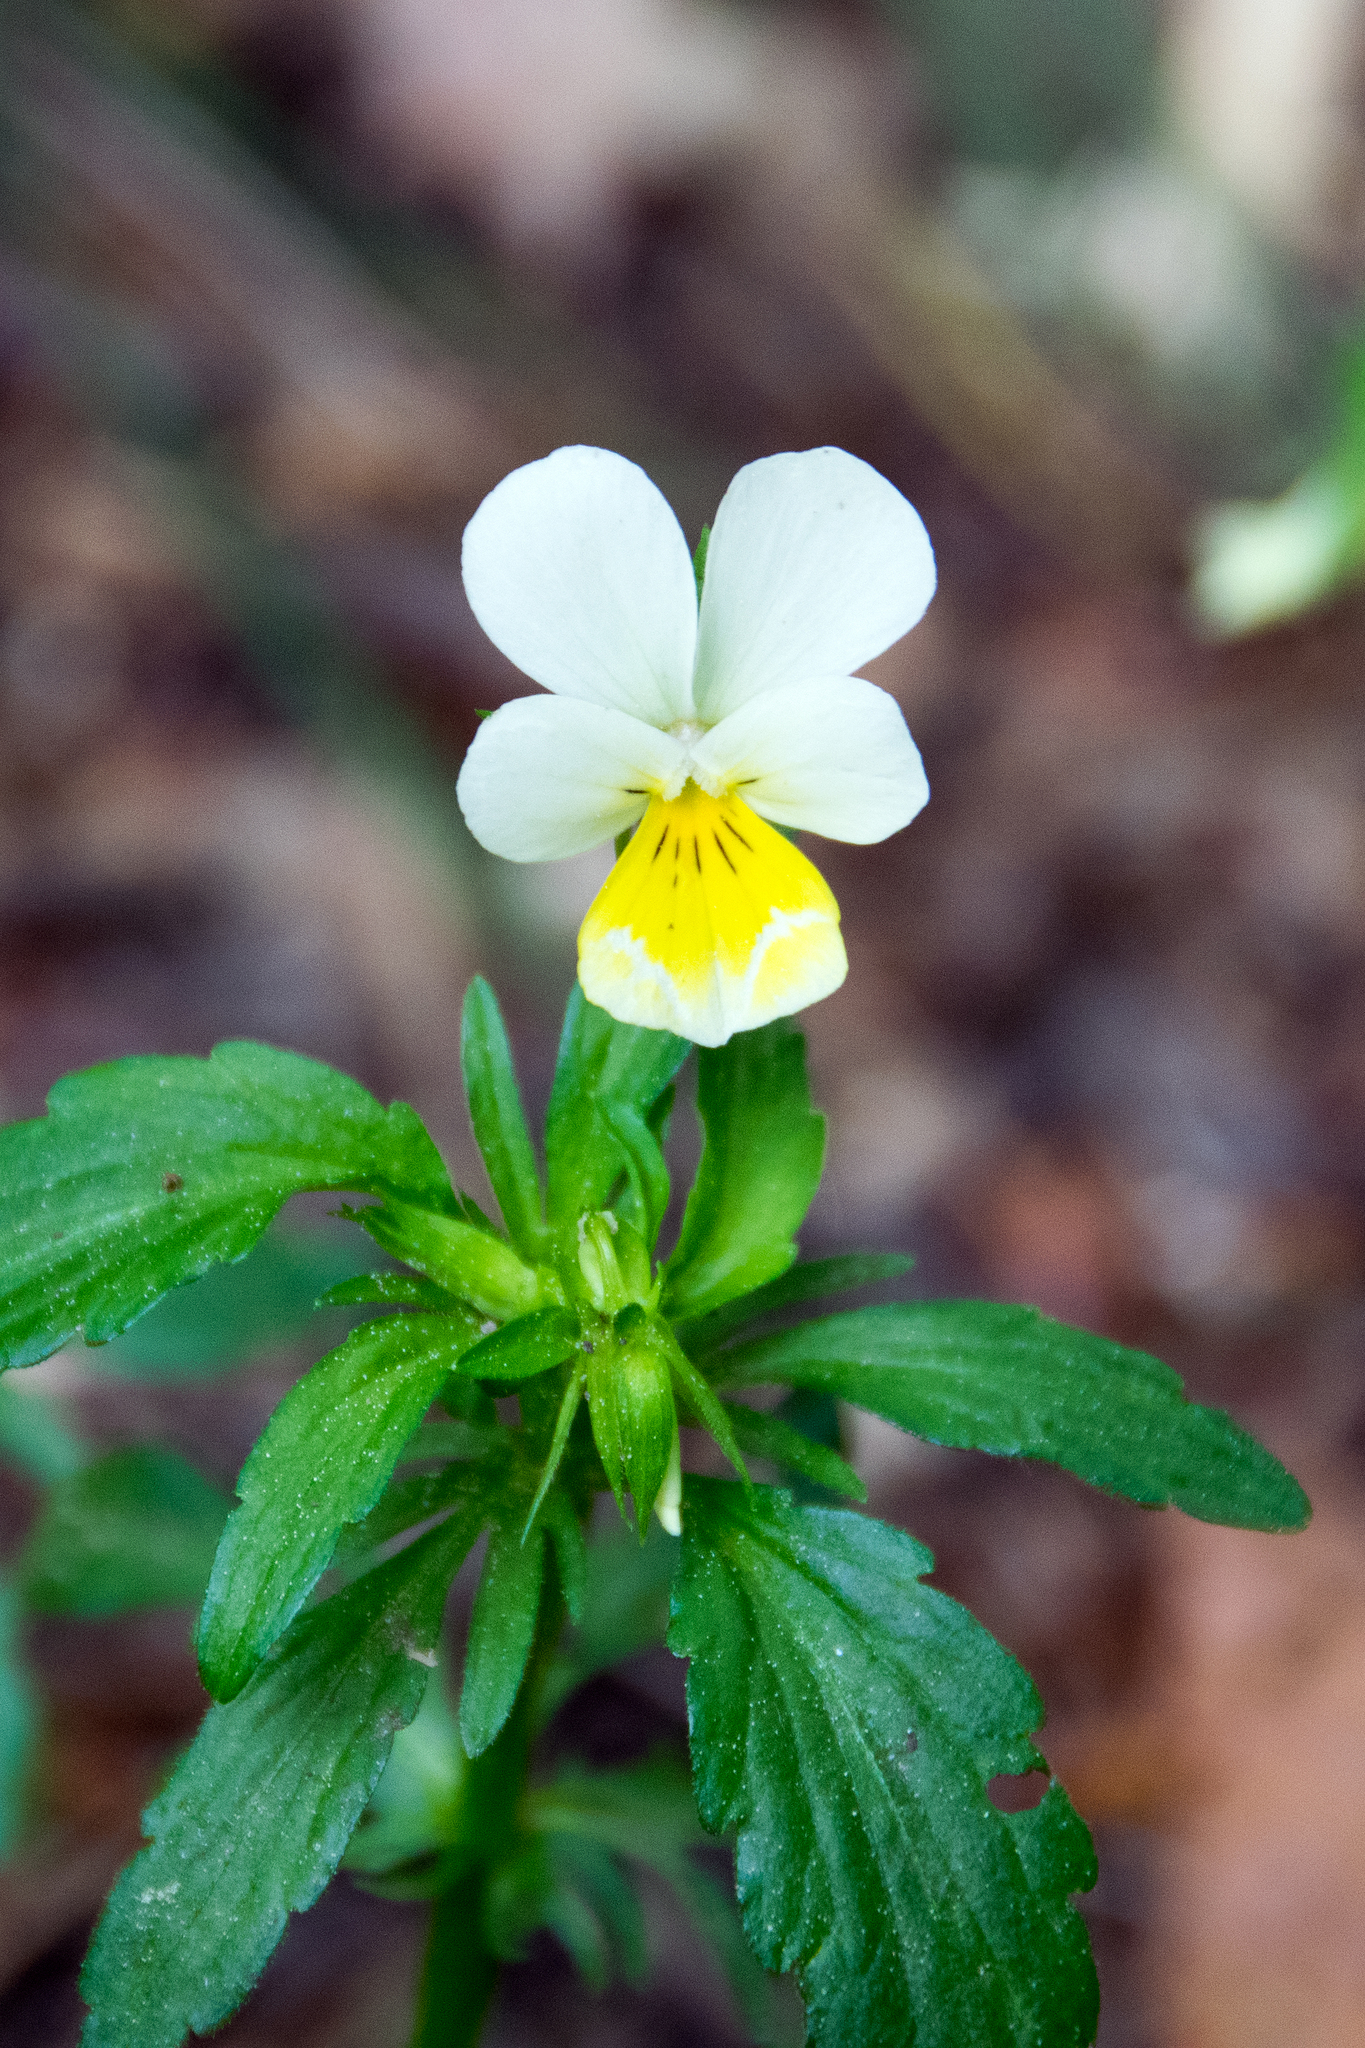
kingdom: Plantae
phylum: Tracheophyta
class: Magnoliopsida
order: Malpighiales
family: Violaceae
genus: Viola
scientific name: Viola arvensis
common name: Field pansy
